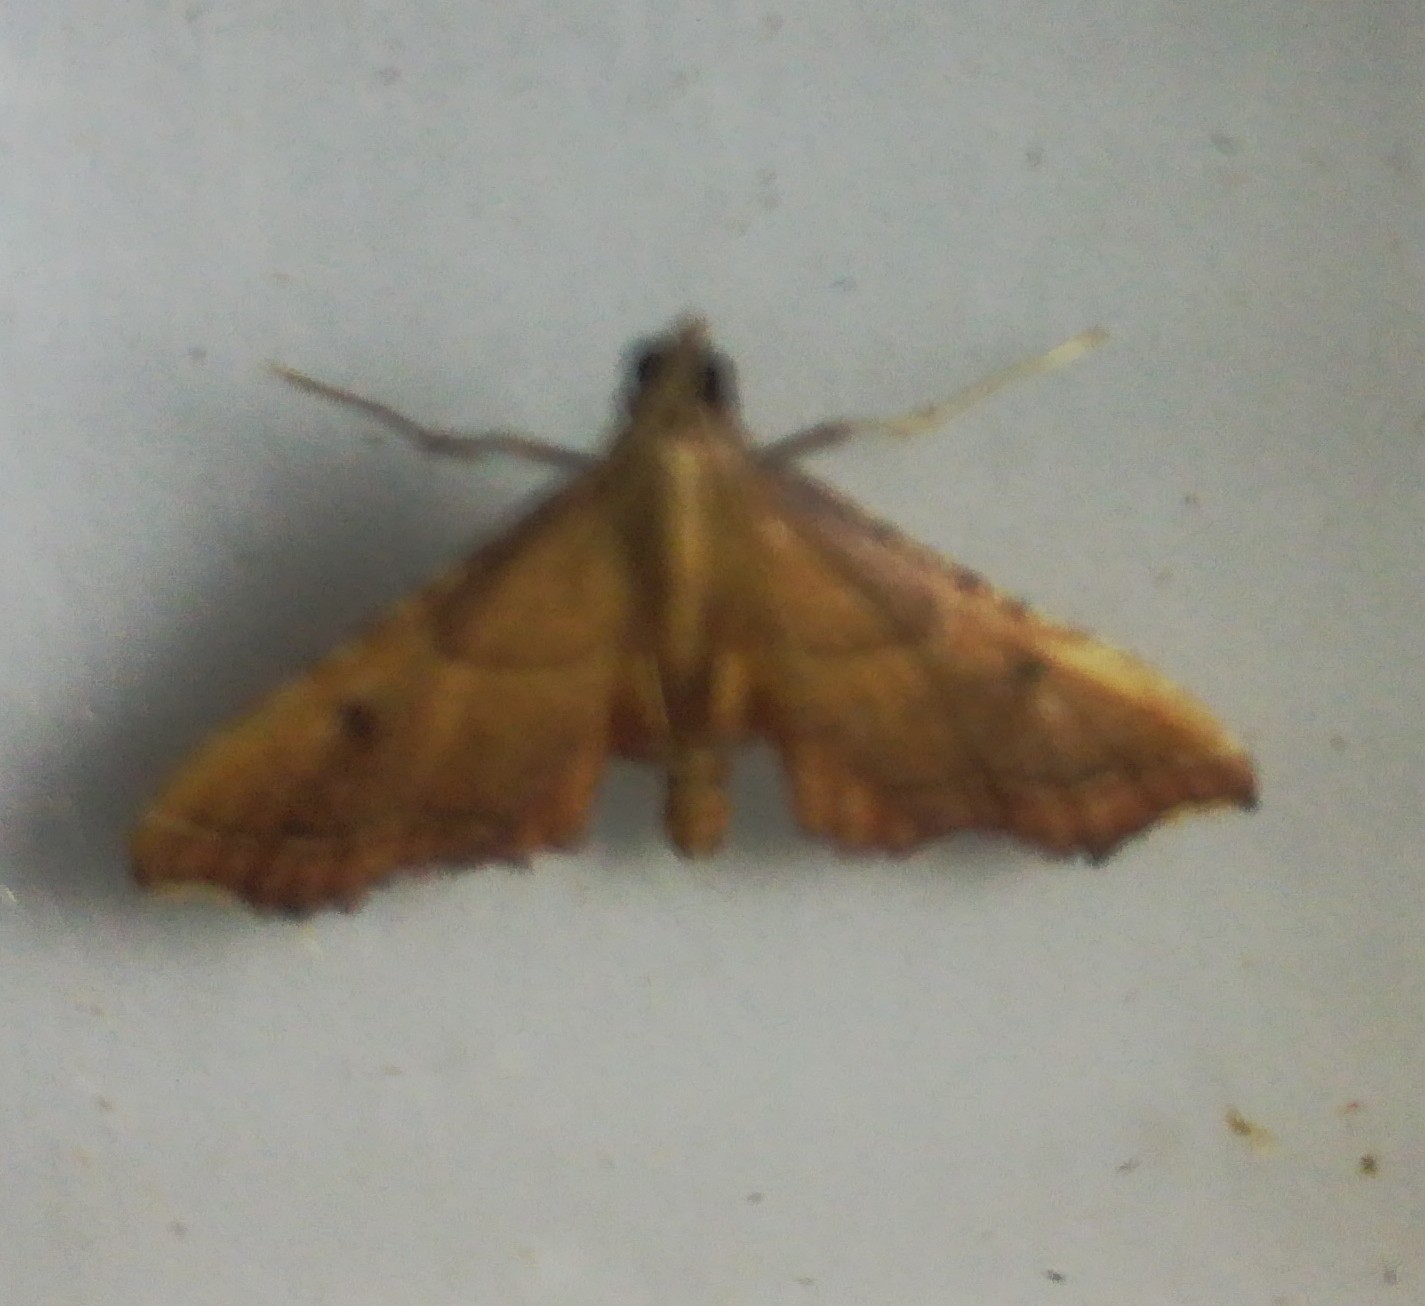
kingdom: Animalia
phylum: Arthropoda
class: Insecta
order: Lepidoptera
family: Pyralidae
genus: Endotricha
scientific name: Endotricha flammealis
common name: Rosy tabby
